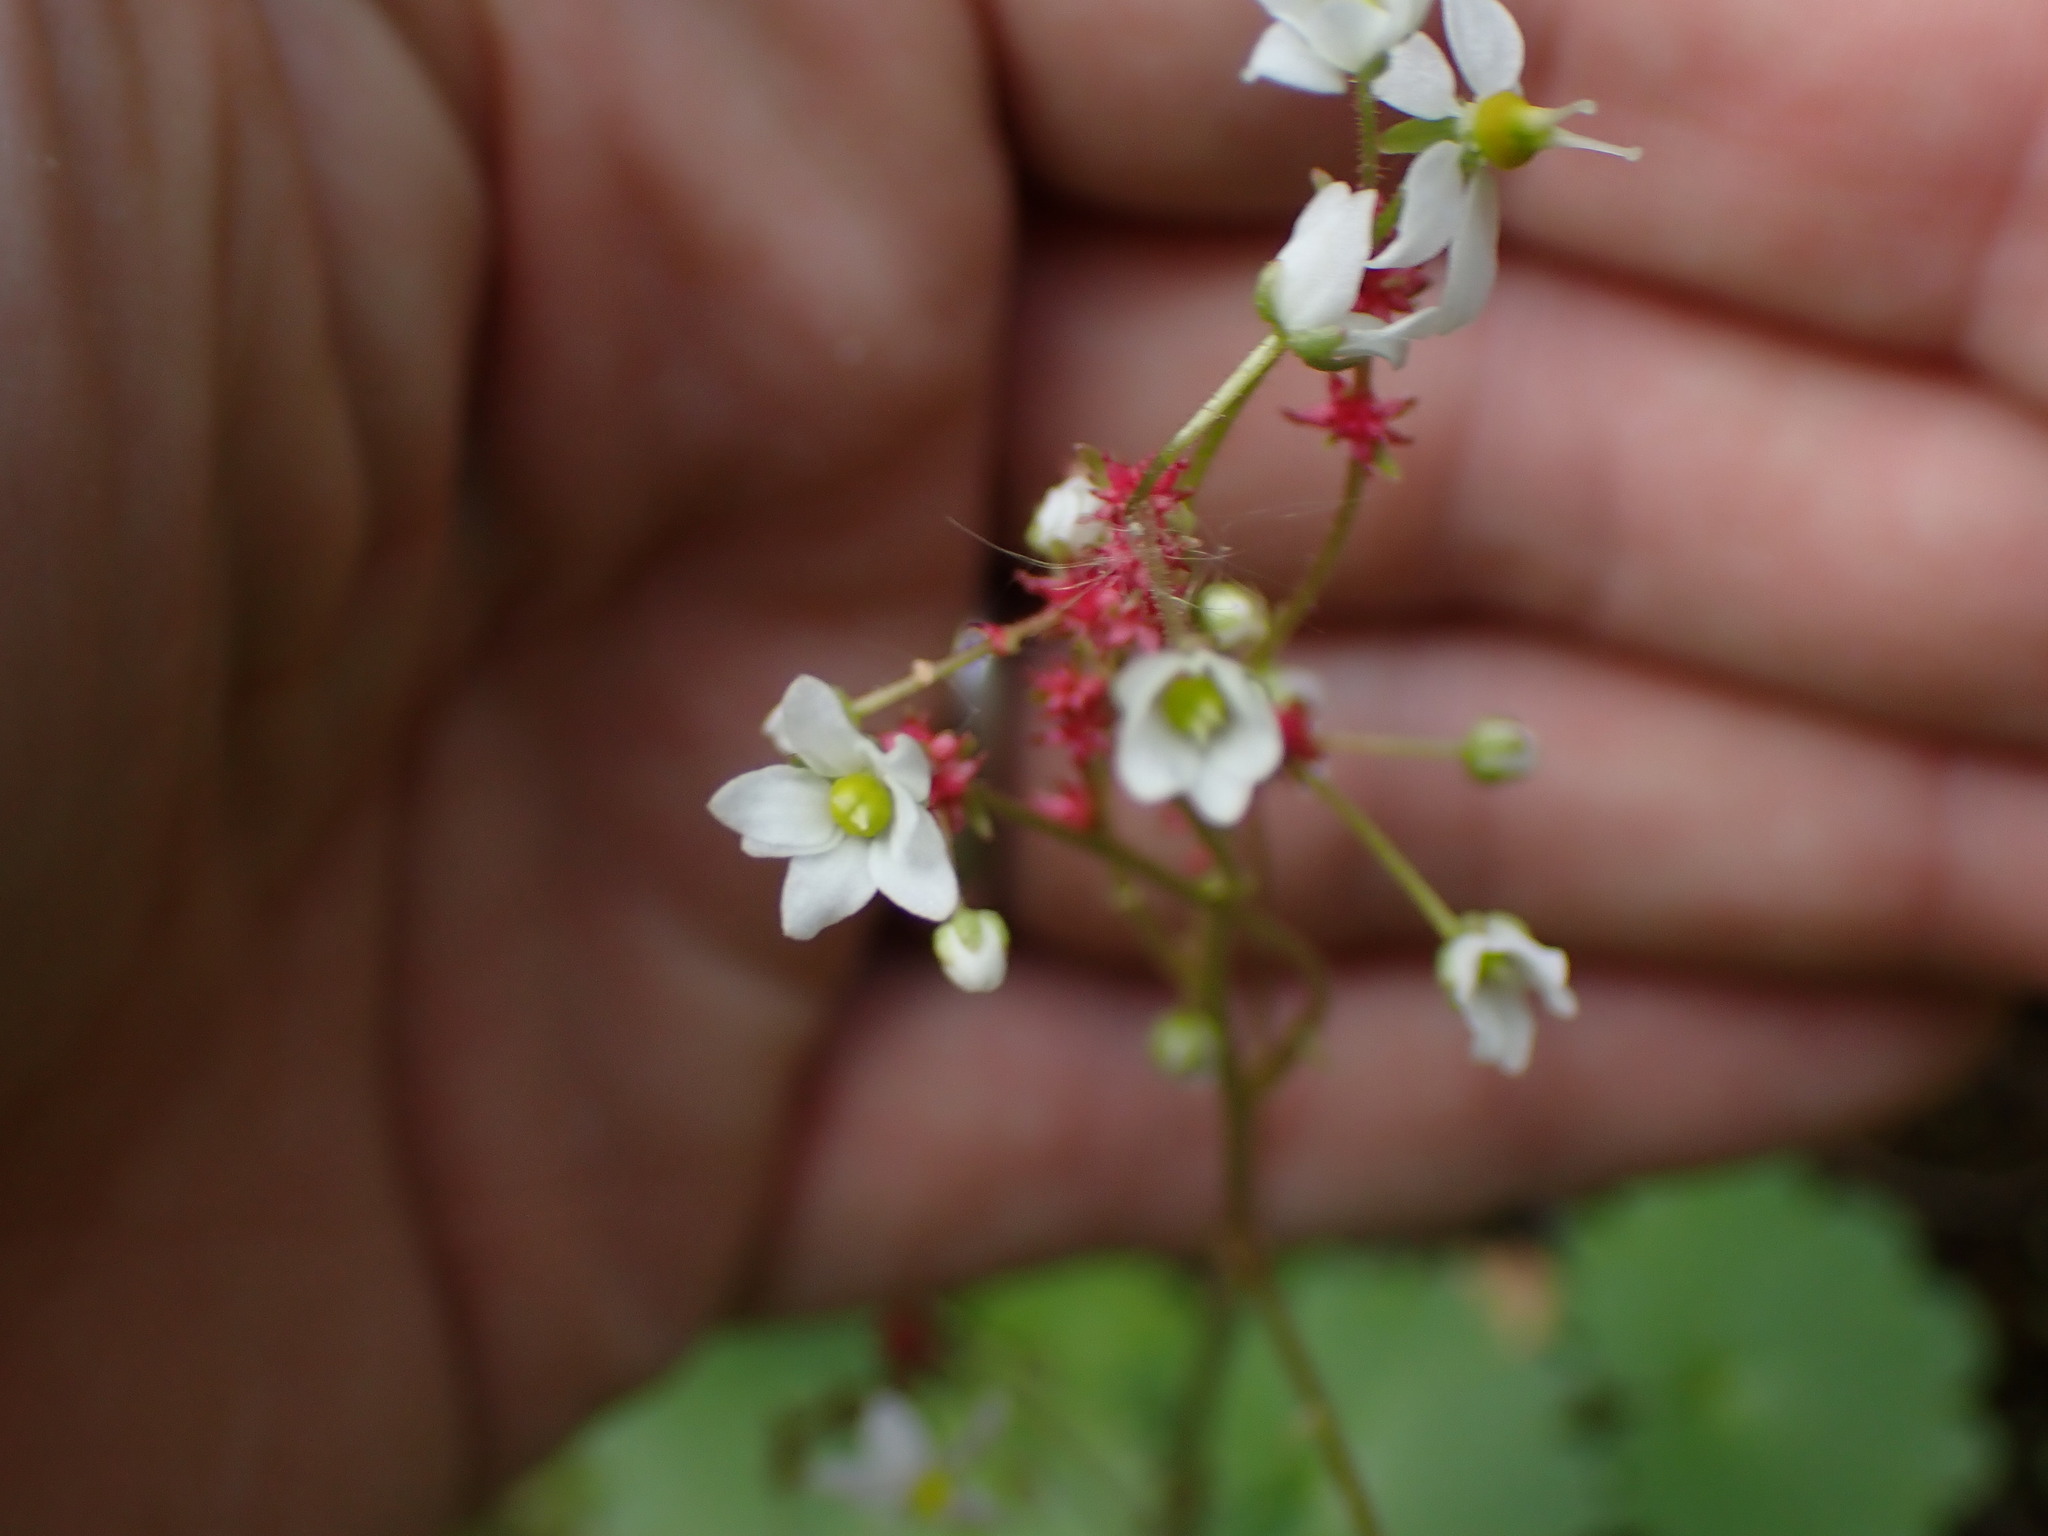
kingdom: Plantae
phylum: Tracheophyta
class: Magnoliopsida
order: Saxifragales
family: Saxifragaceae
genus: Micranthes
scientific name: Micranthes mertensiana
